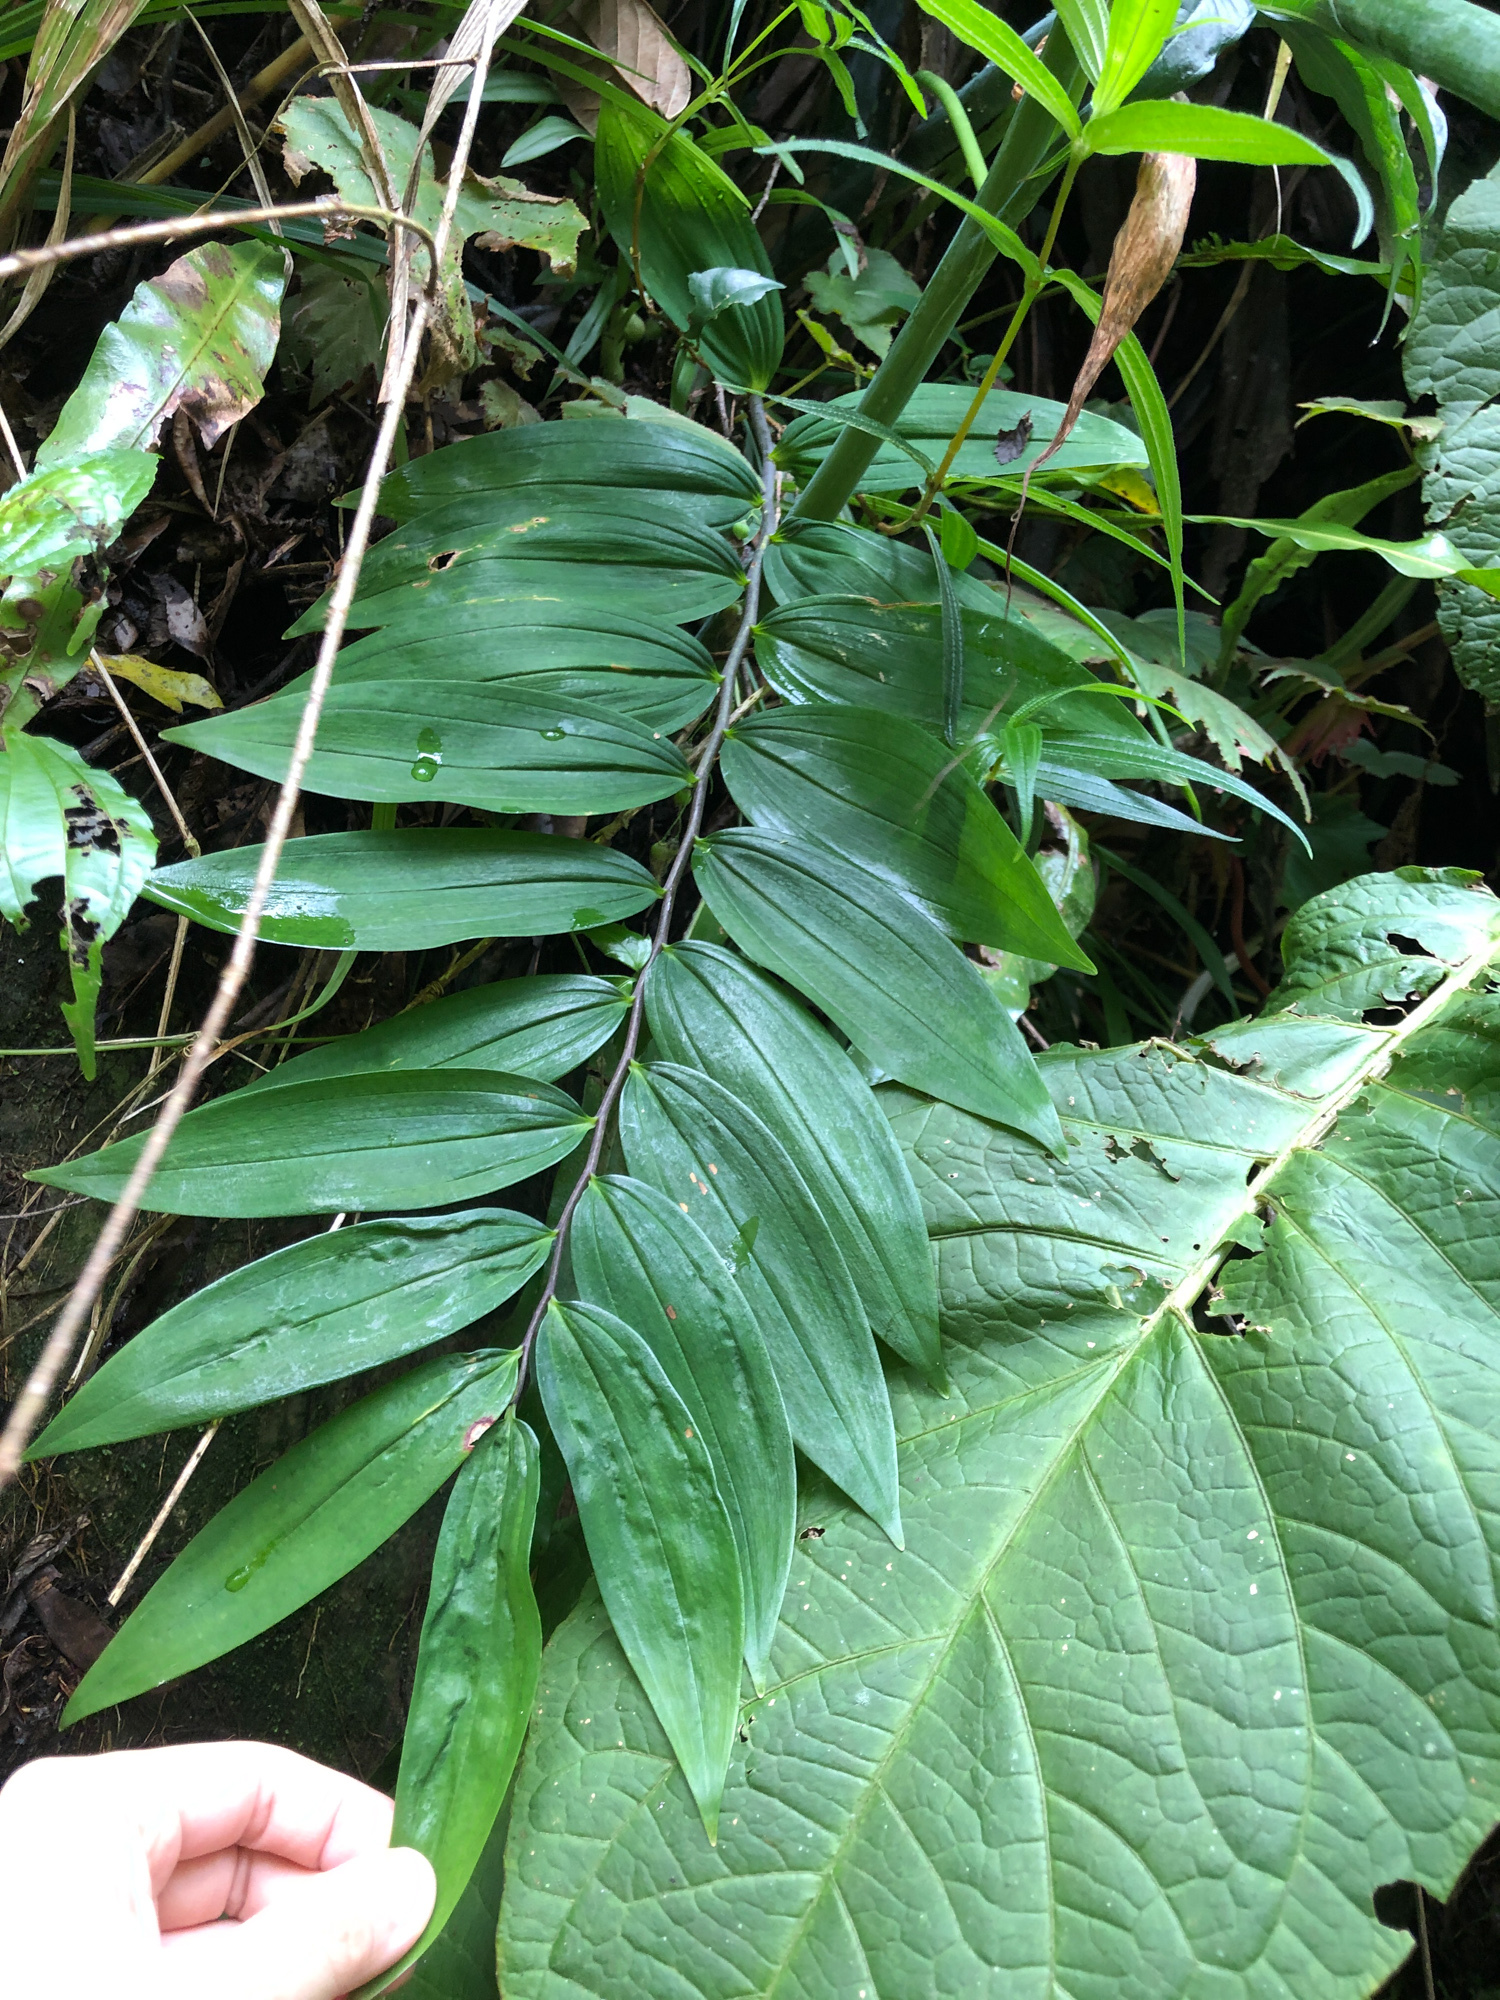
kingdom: Plantae
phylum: Tracheophyta
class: Liliopsida
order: Asparagales
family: Asparagaceae
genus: Polygonatum
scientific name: Polygonatum arisanense
